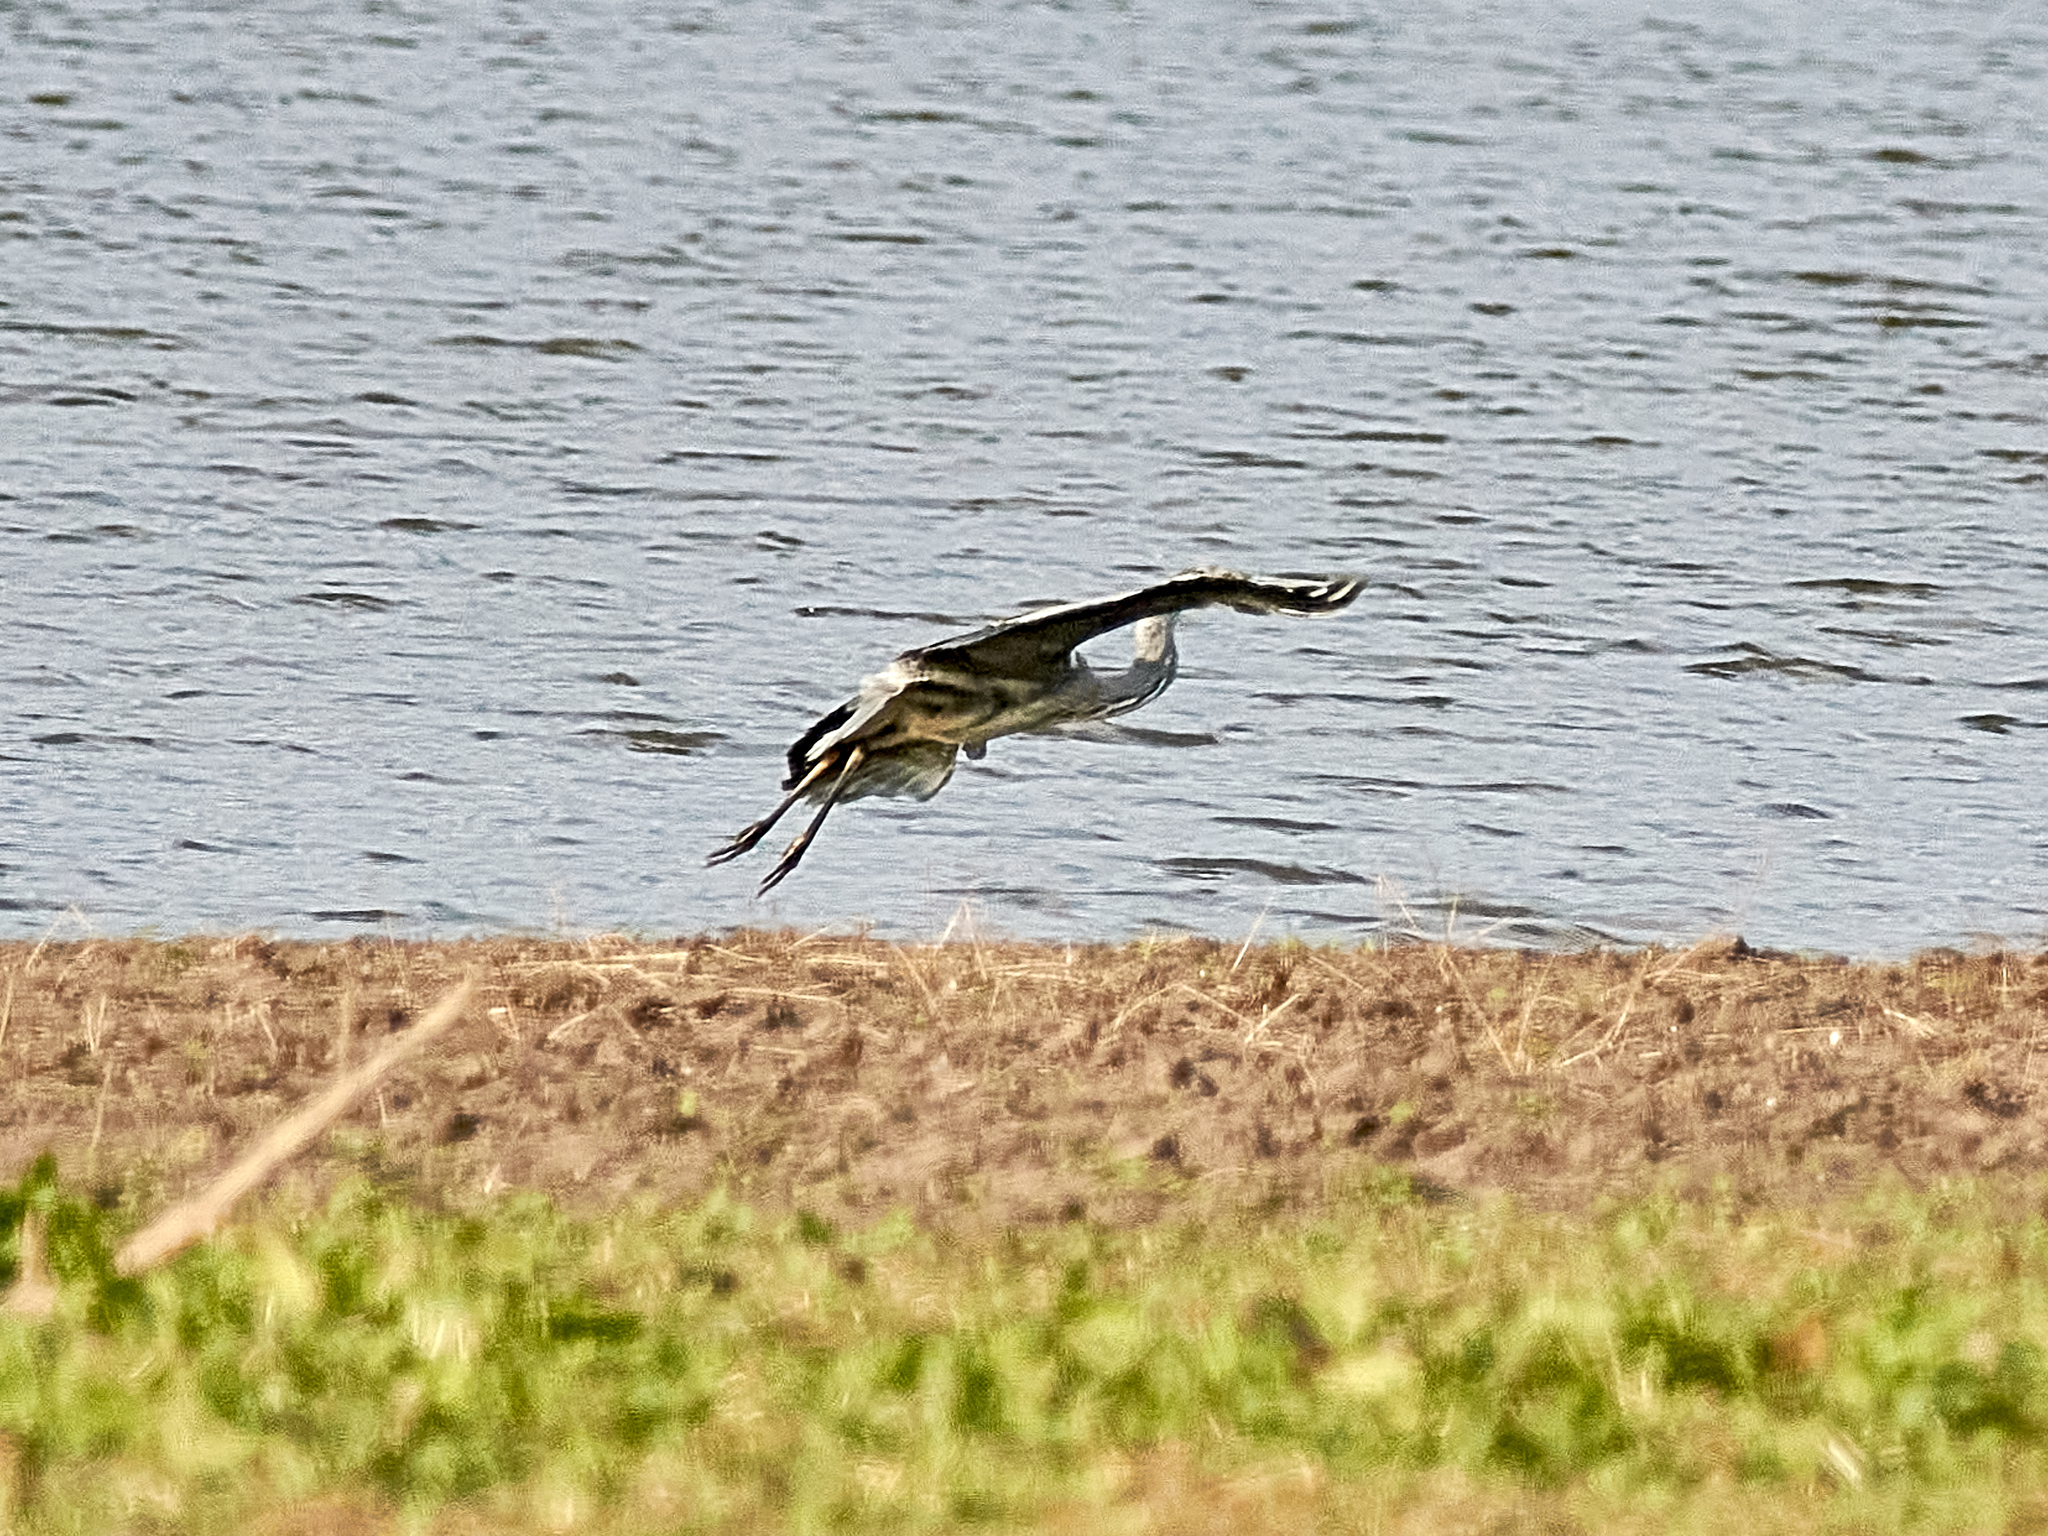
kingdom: Animalia
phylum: Chordata
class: Aves
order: Pelecaniformes
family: Ardeidae
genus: Ardea
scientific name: Ardea cinerea
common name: Grey heron
